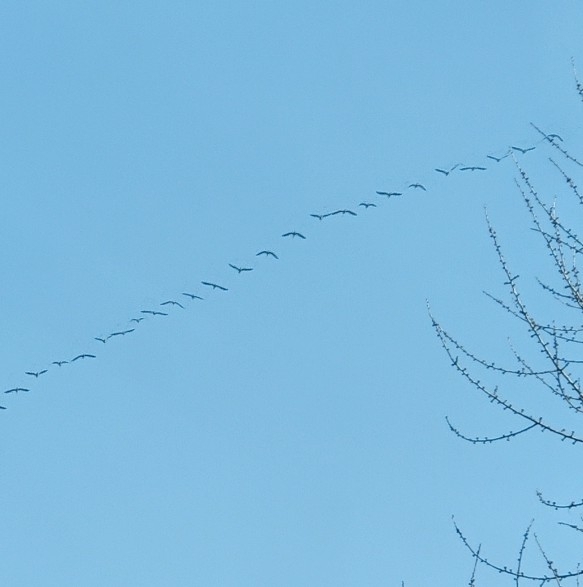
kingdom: Animalia
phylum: Chordata
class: Aves
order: Gruiformes
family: Gruidae
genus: Grus
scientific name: Grus grus
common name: Common crane
